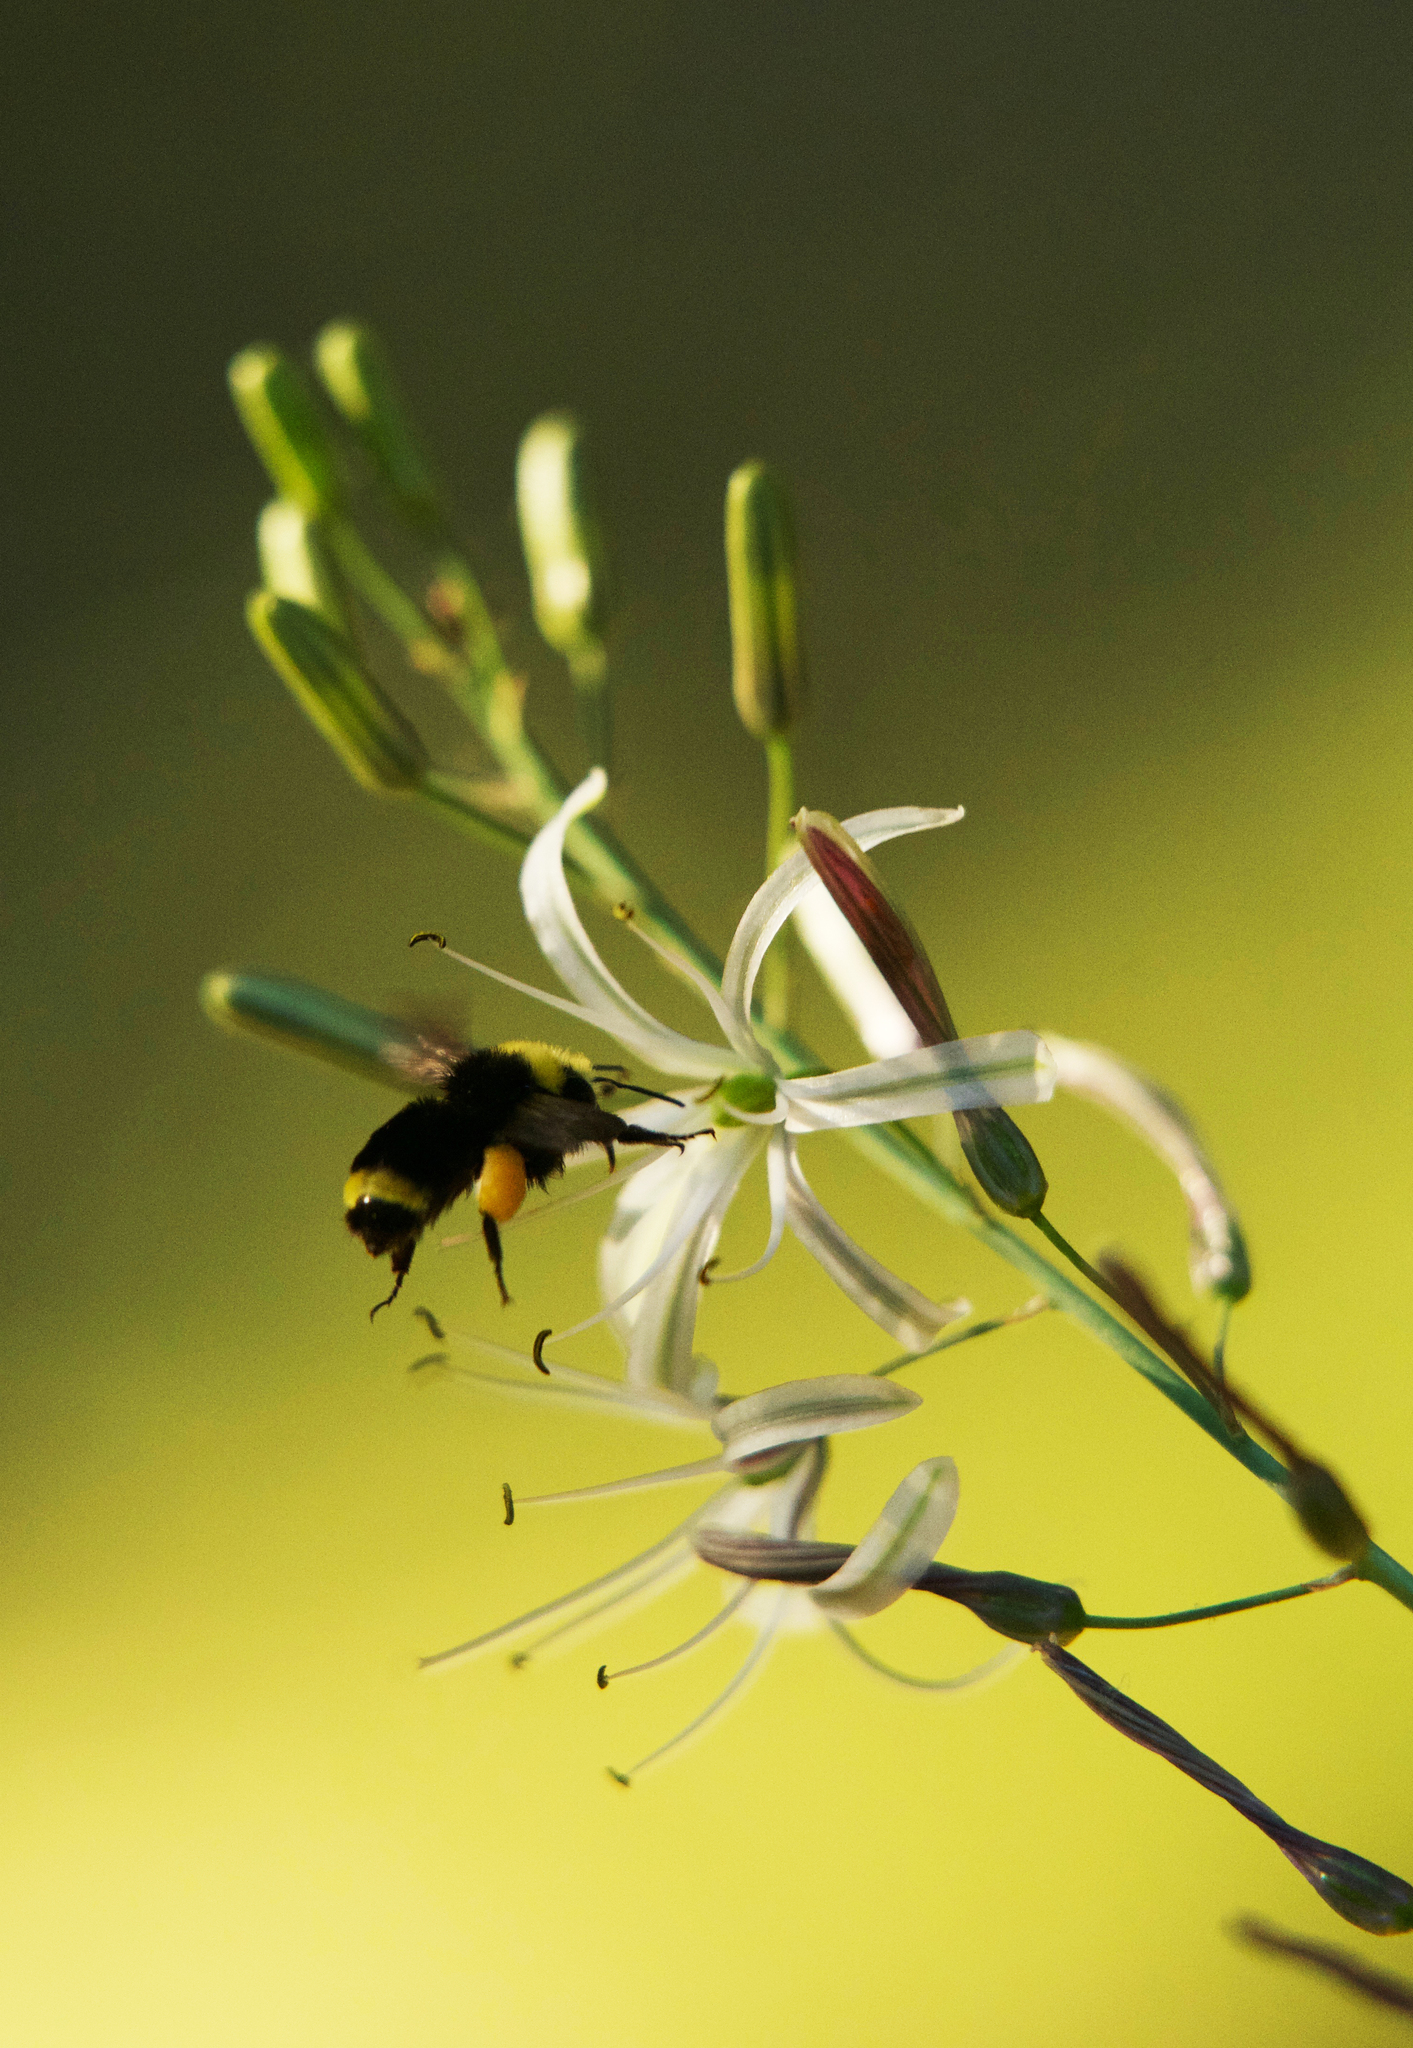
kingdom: Animalia
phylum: Arthropoda
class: Insecta
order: Hymenoptera
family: Apidae
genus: Bombus
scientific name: Bombus vosnesenskii
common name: Vosnesensky bumble bee
